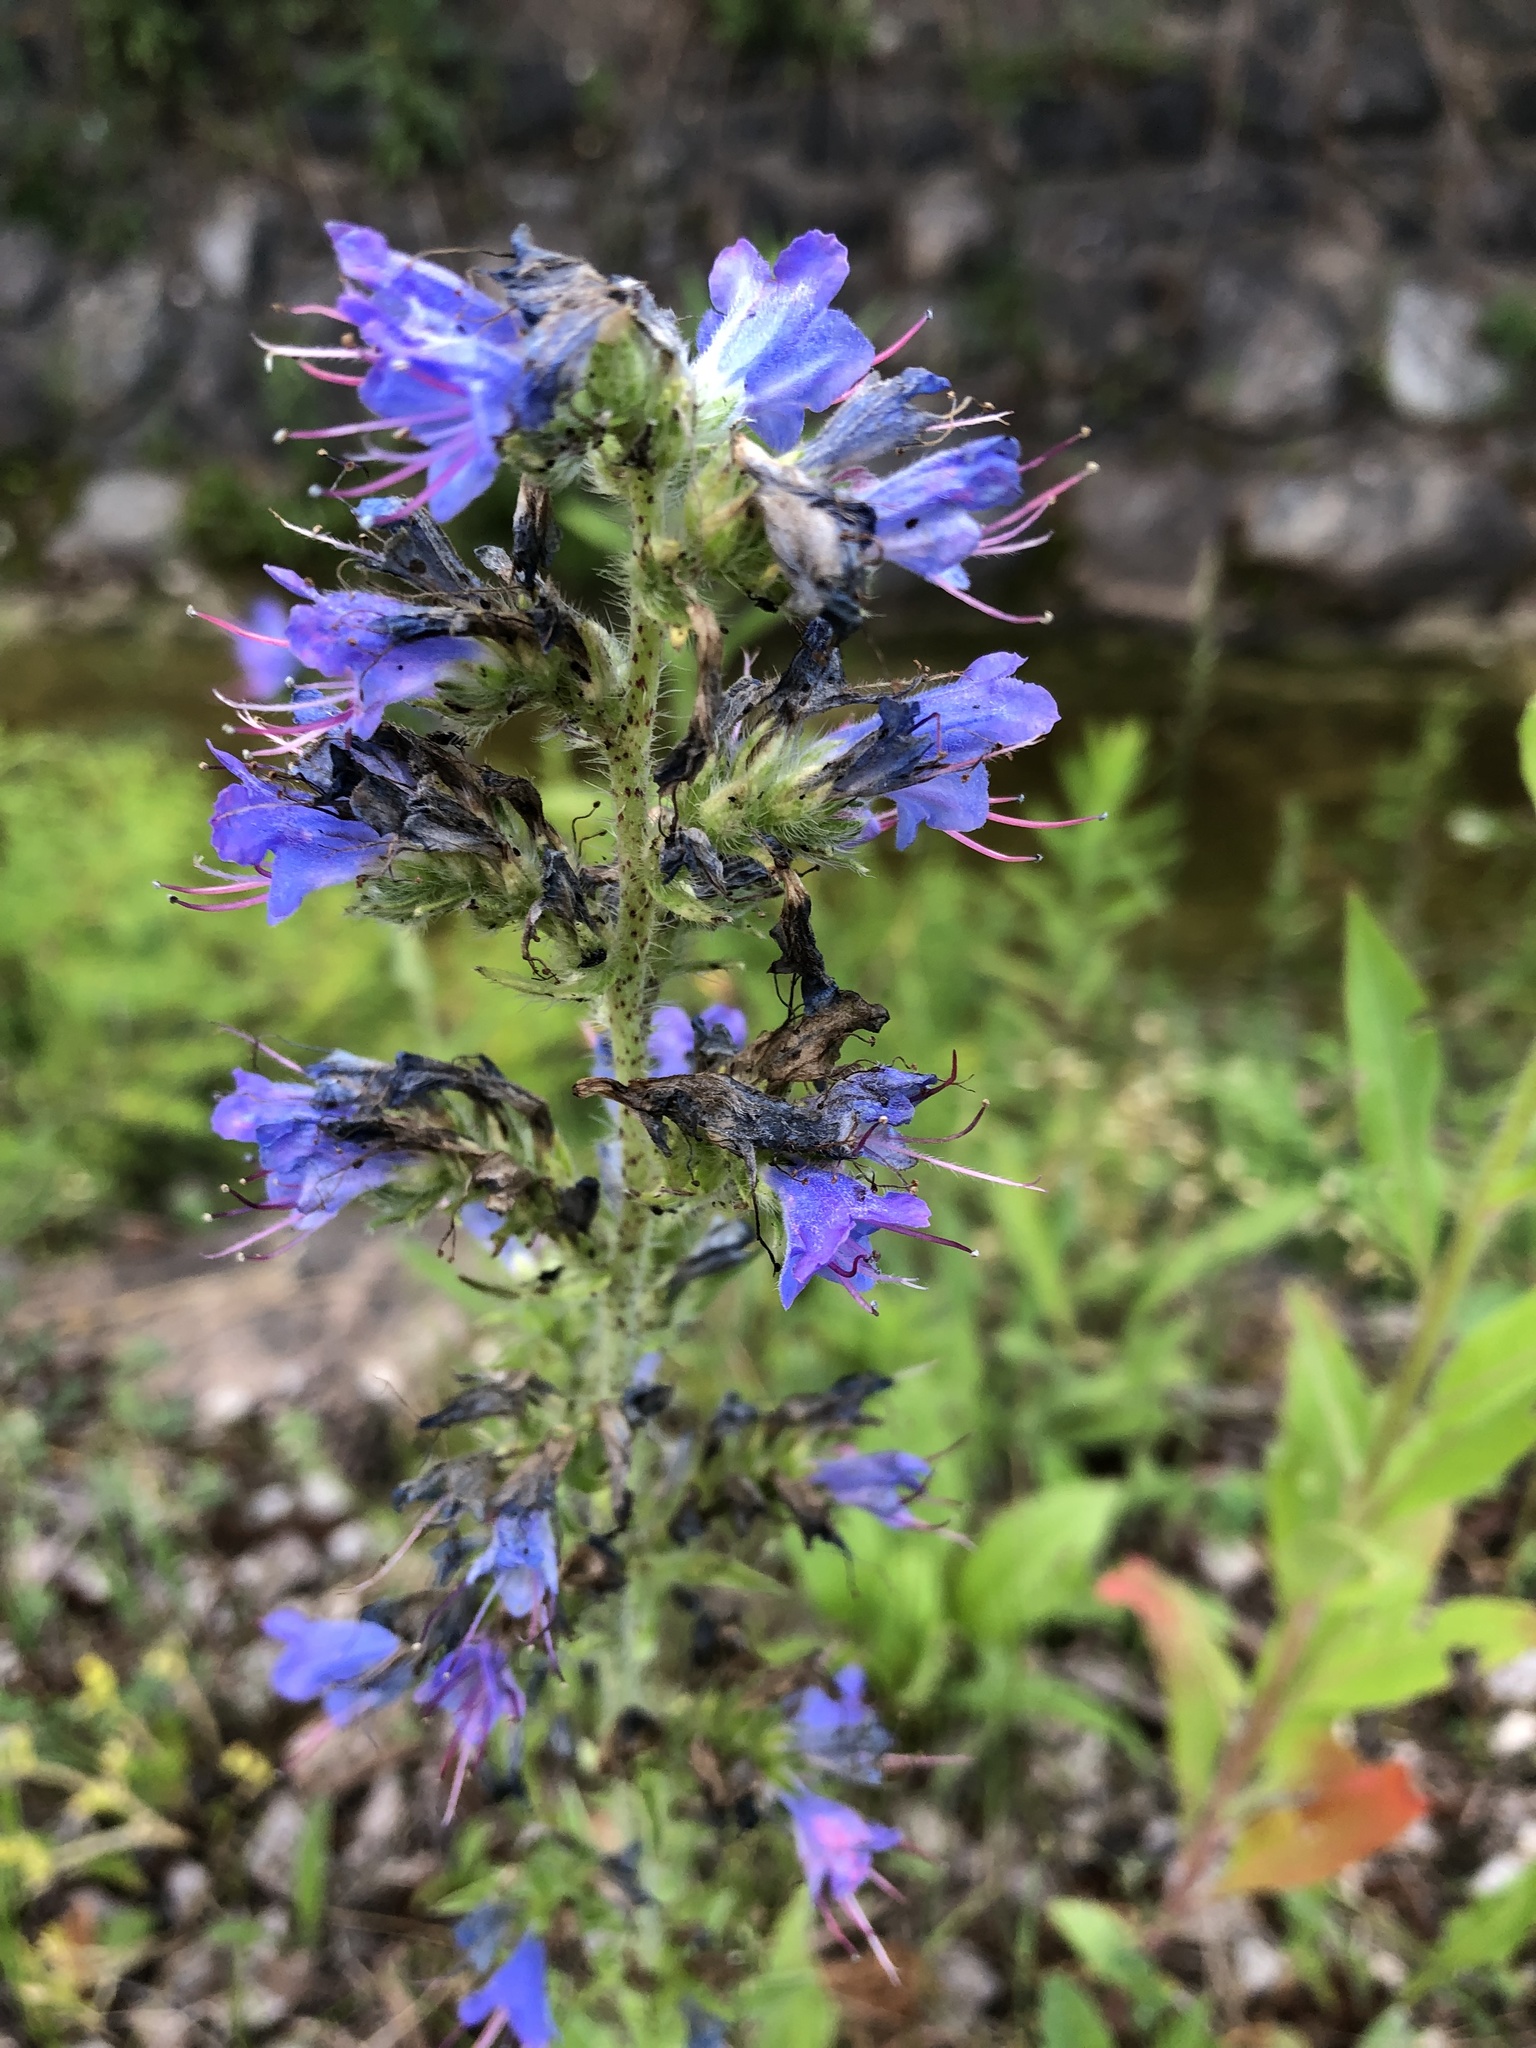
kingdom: Plantae
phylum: Tracheophyta
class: Magnoliopsida
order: Boraginales
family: Boraginaceae
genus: Echium
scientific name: Echium vulgare
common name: Common viper's bugloss
